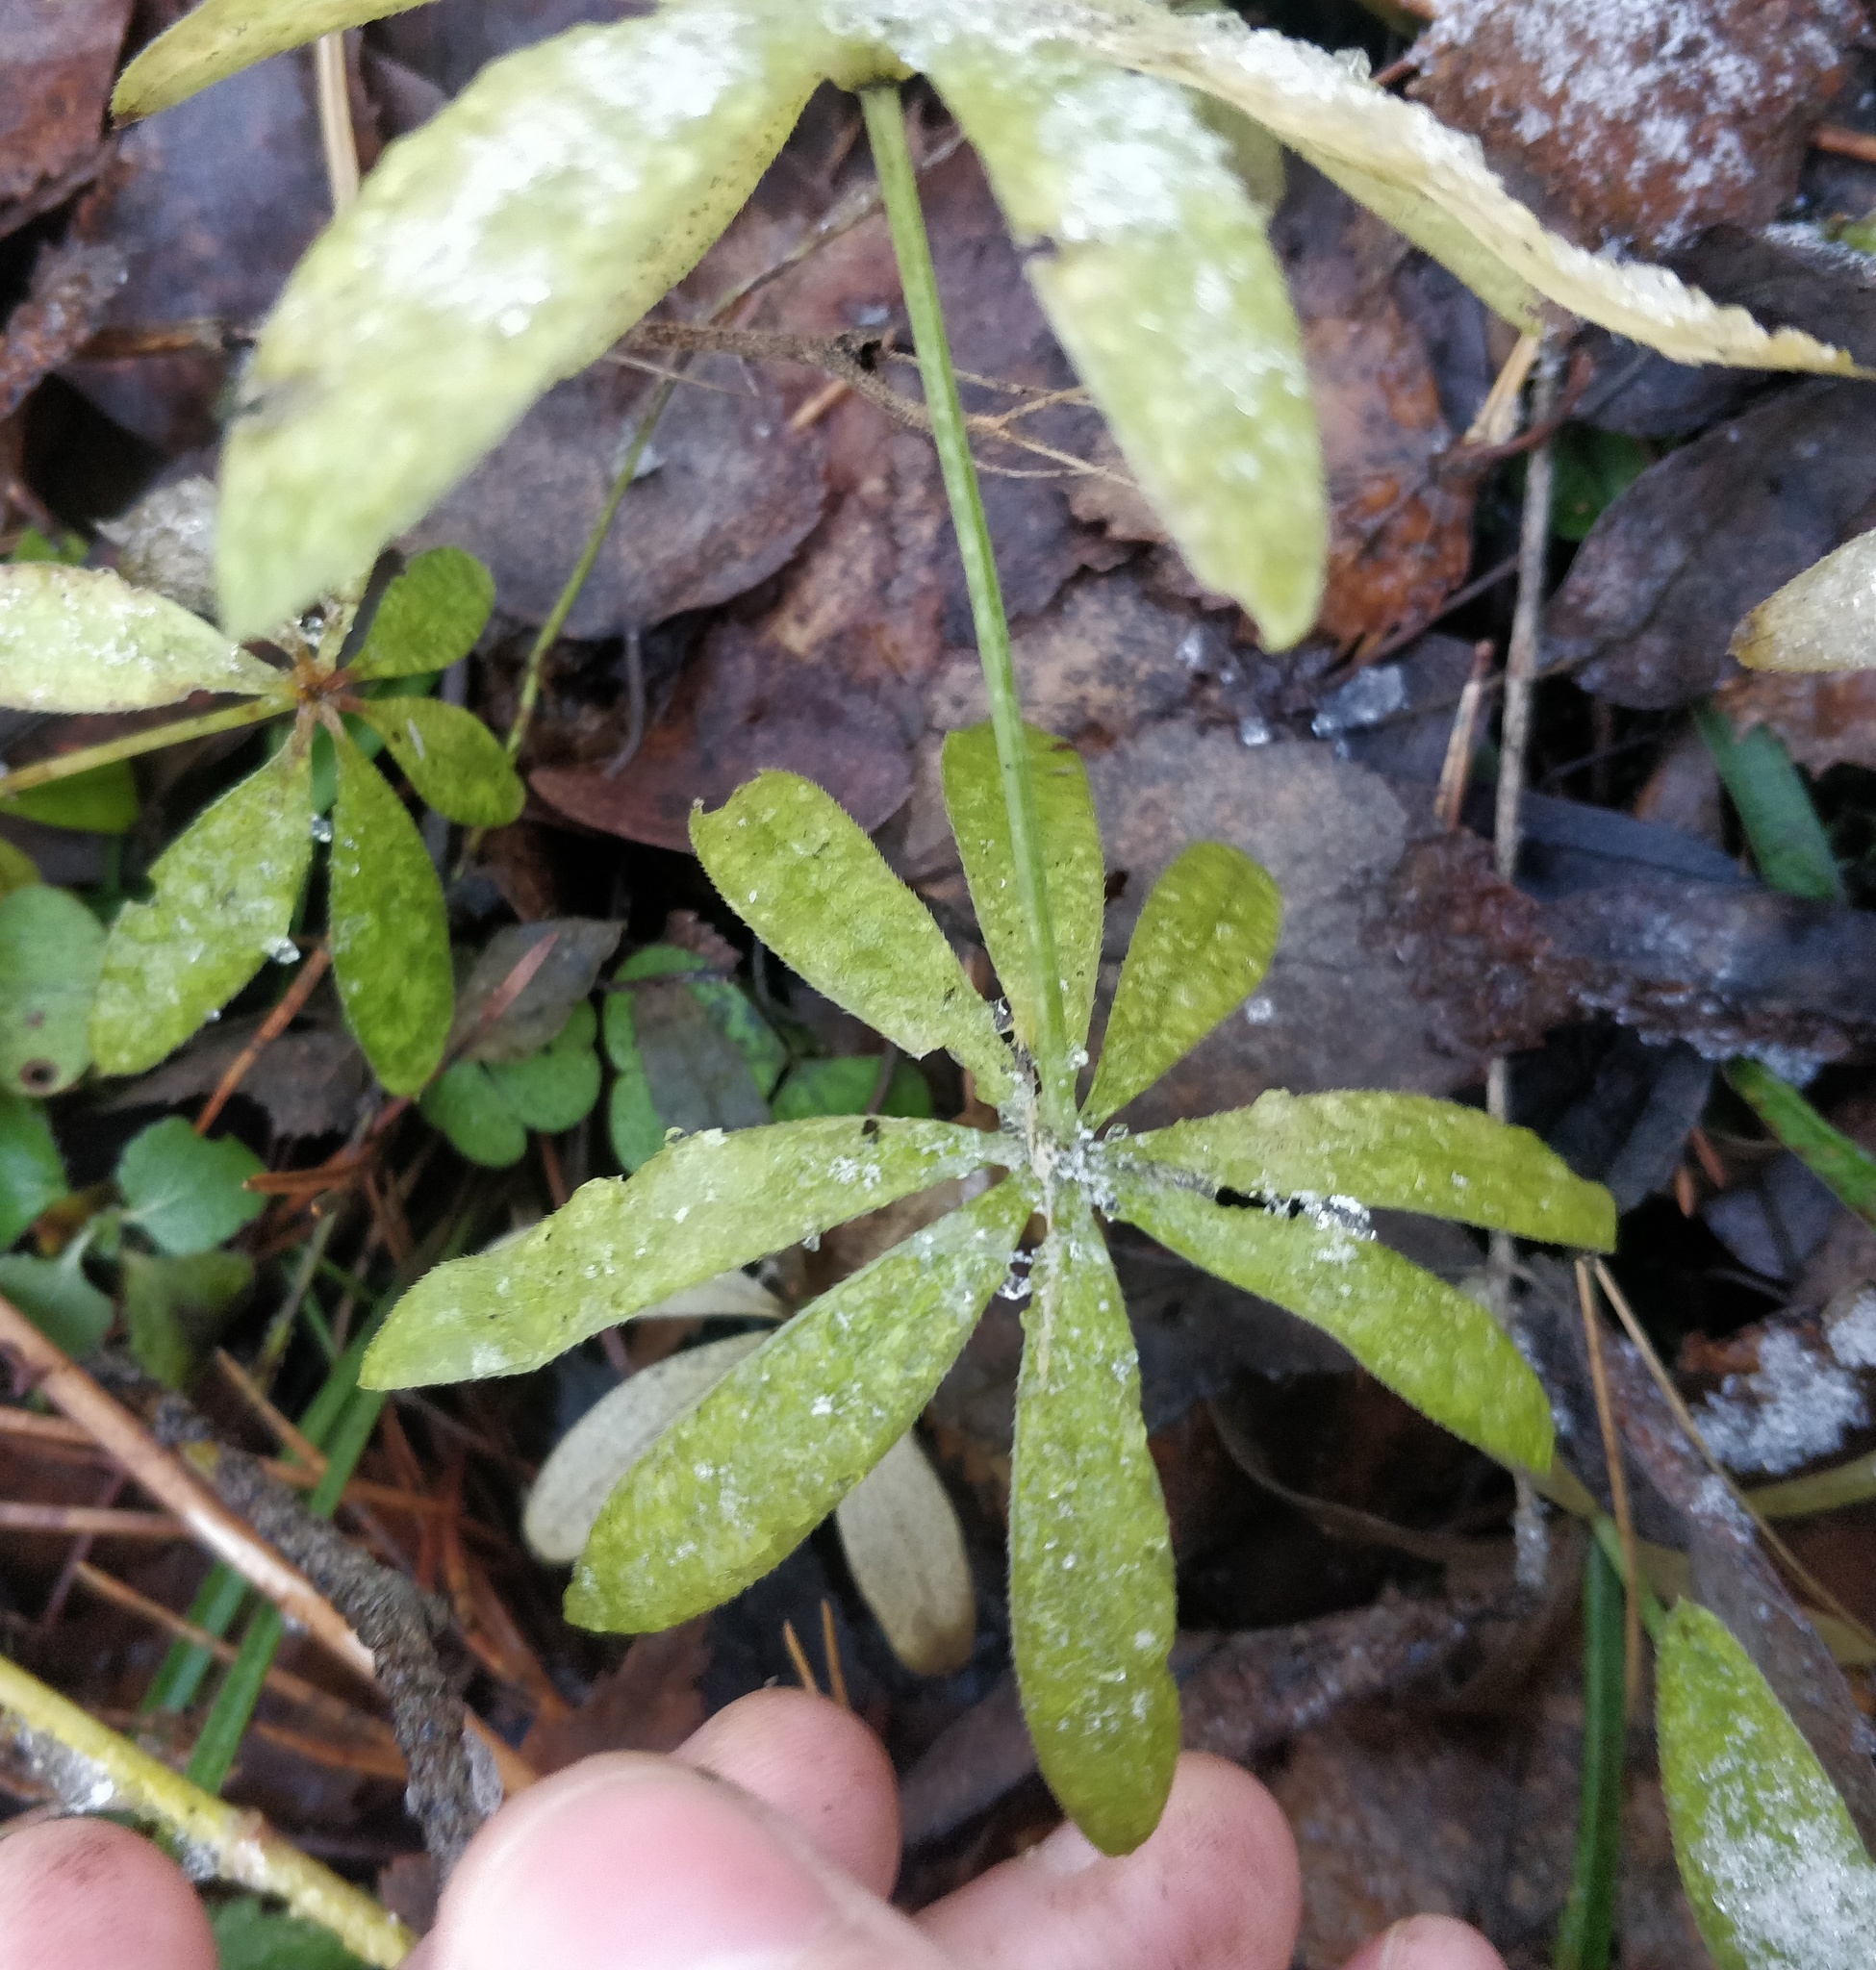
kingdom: Plantae
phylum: Tracheophyta
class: Magnoliopsida
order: Gentianales
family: Rubiaceae
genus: Galium
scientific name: Galium odoratum
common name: Sweet woodruff
